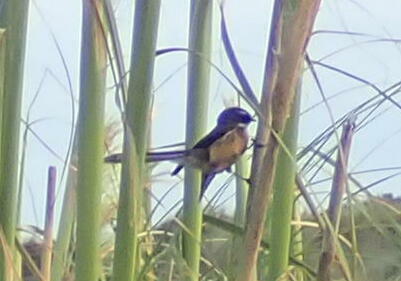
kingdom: Animalia
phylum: Chordata
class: Aves
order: Passeriformes
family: Rhipiduridae
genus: Rhipidura
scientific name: Rhipidura fuliginosa
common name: New zealand fantail
